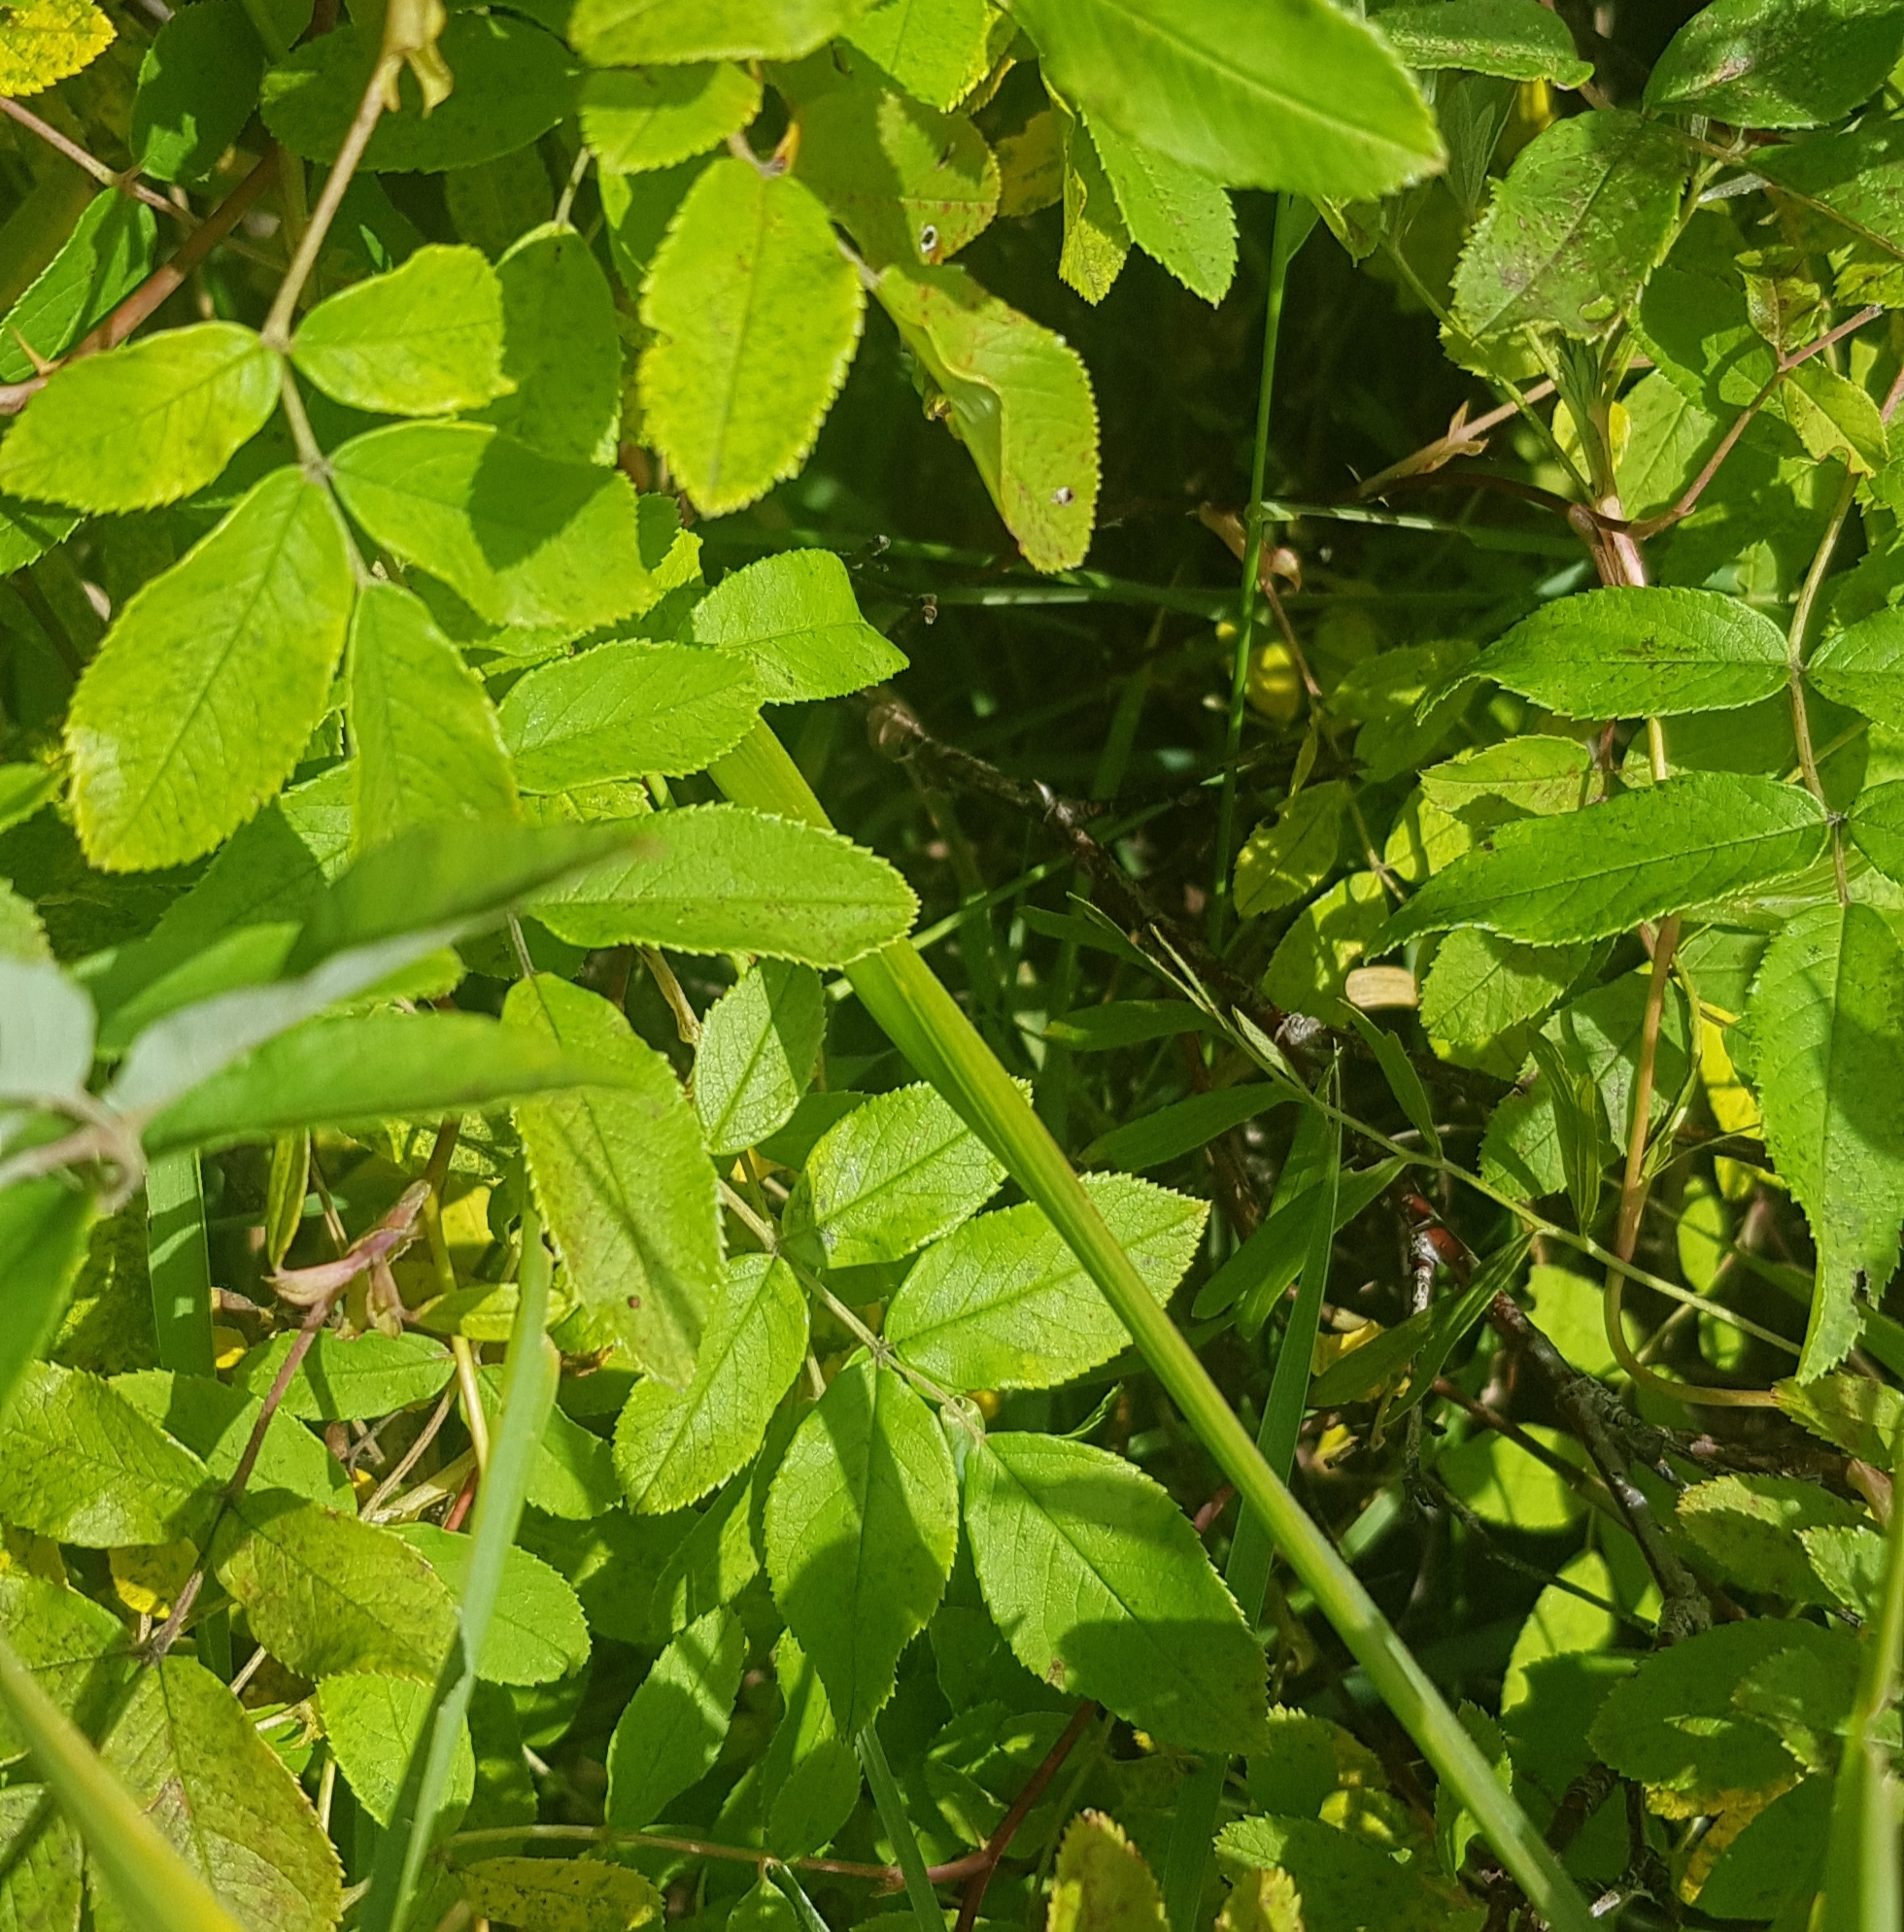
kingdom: Plantae
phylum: Tracheophyta
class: Magnoliopsida
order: Rosales
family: Rosaceae
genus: Rosa
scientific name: Rosa davurica
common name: Amur rose
